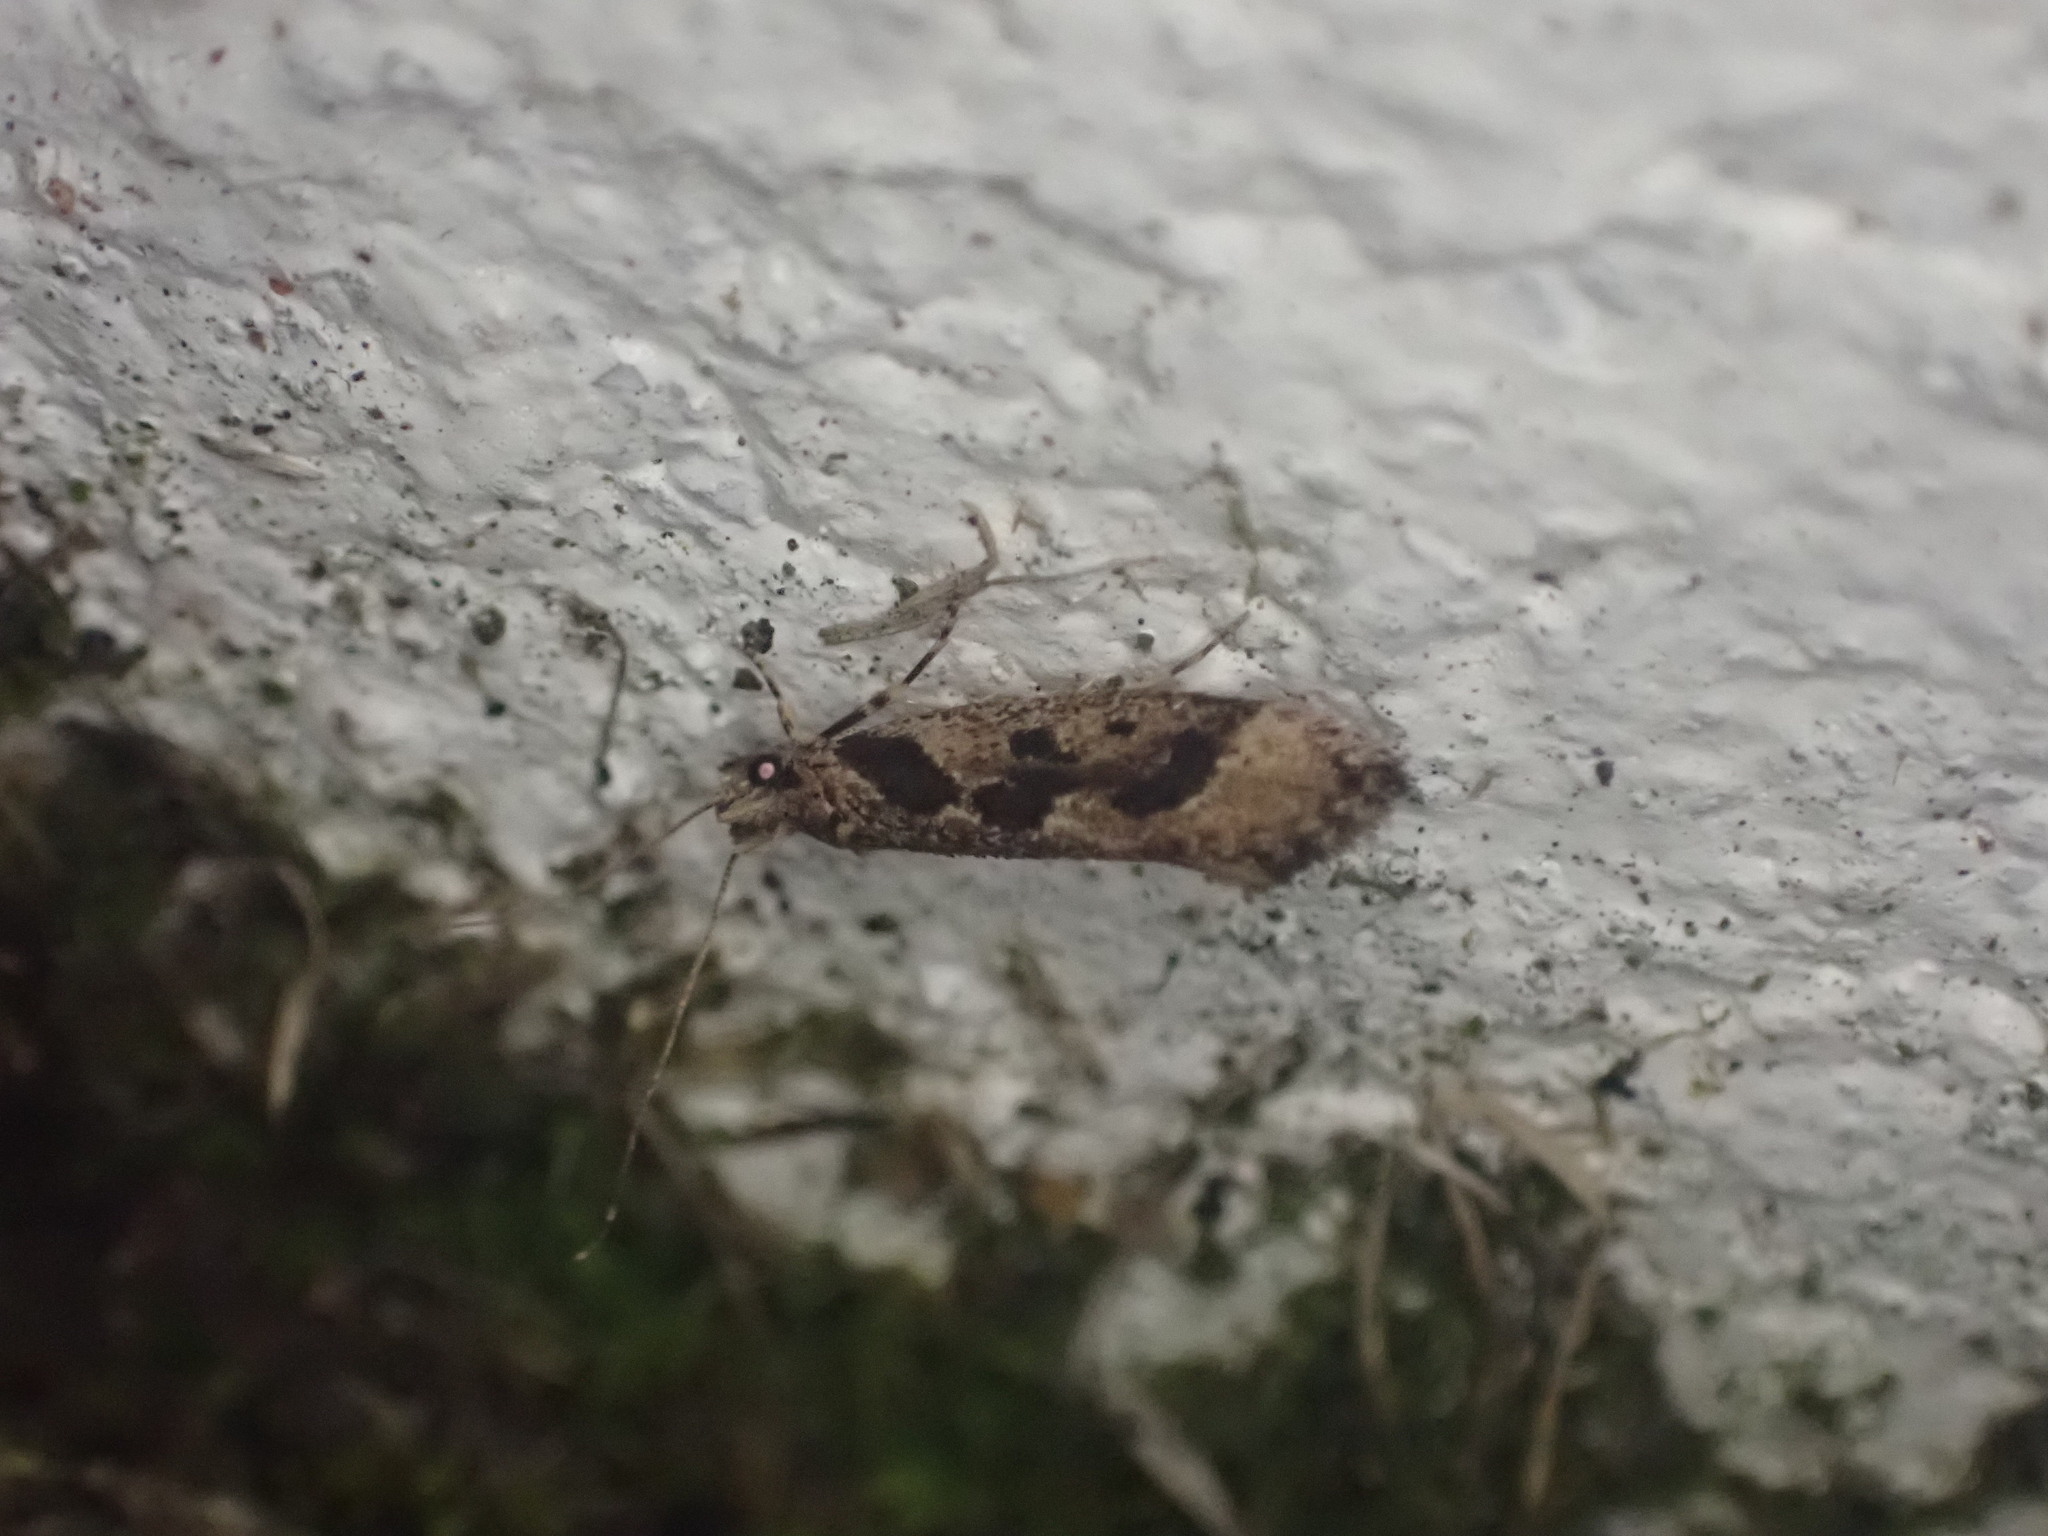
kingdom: Animalia
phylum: Arthropoda
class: Insecta
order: Lepidoptera
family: Tineidae
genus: Erechthias
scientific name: Erechthias capnitis
